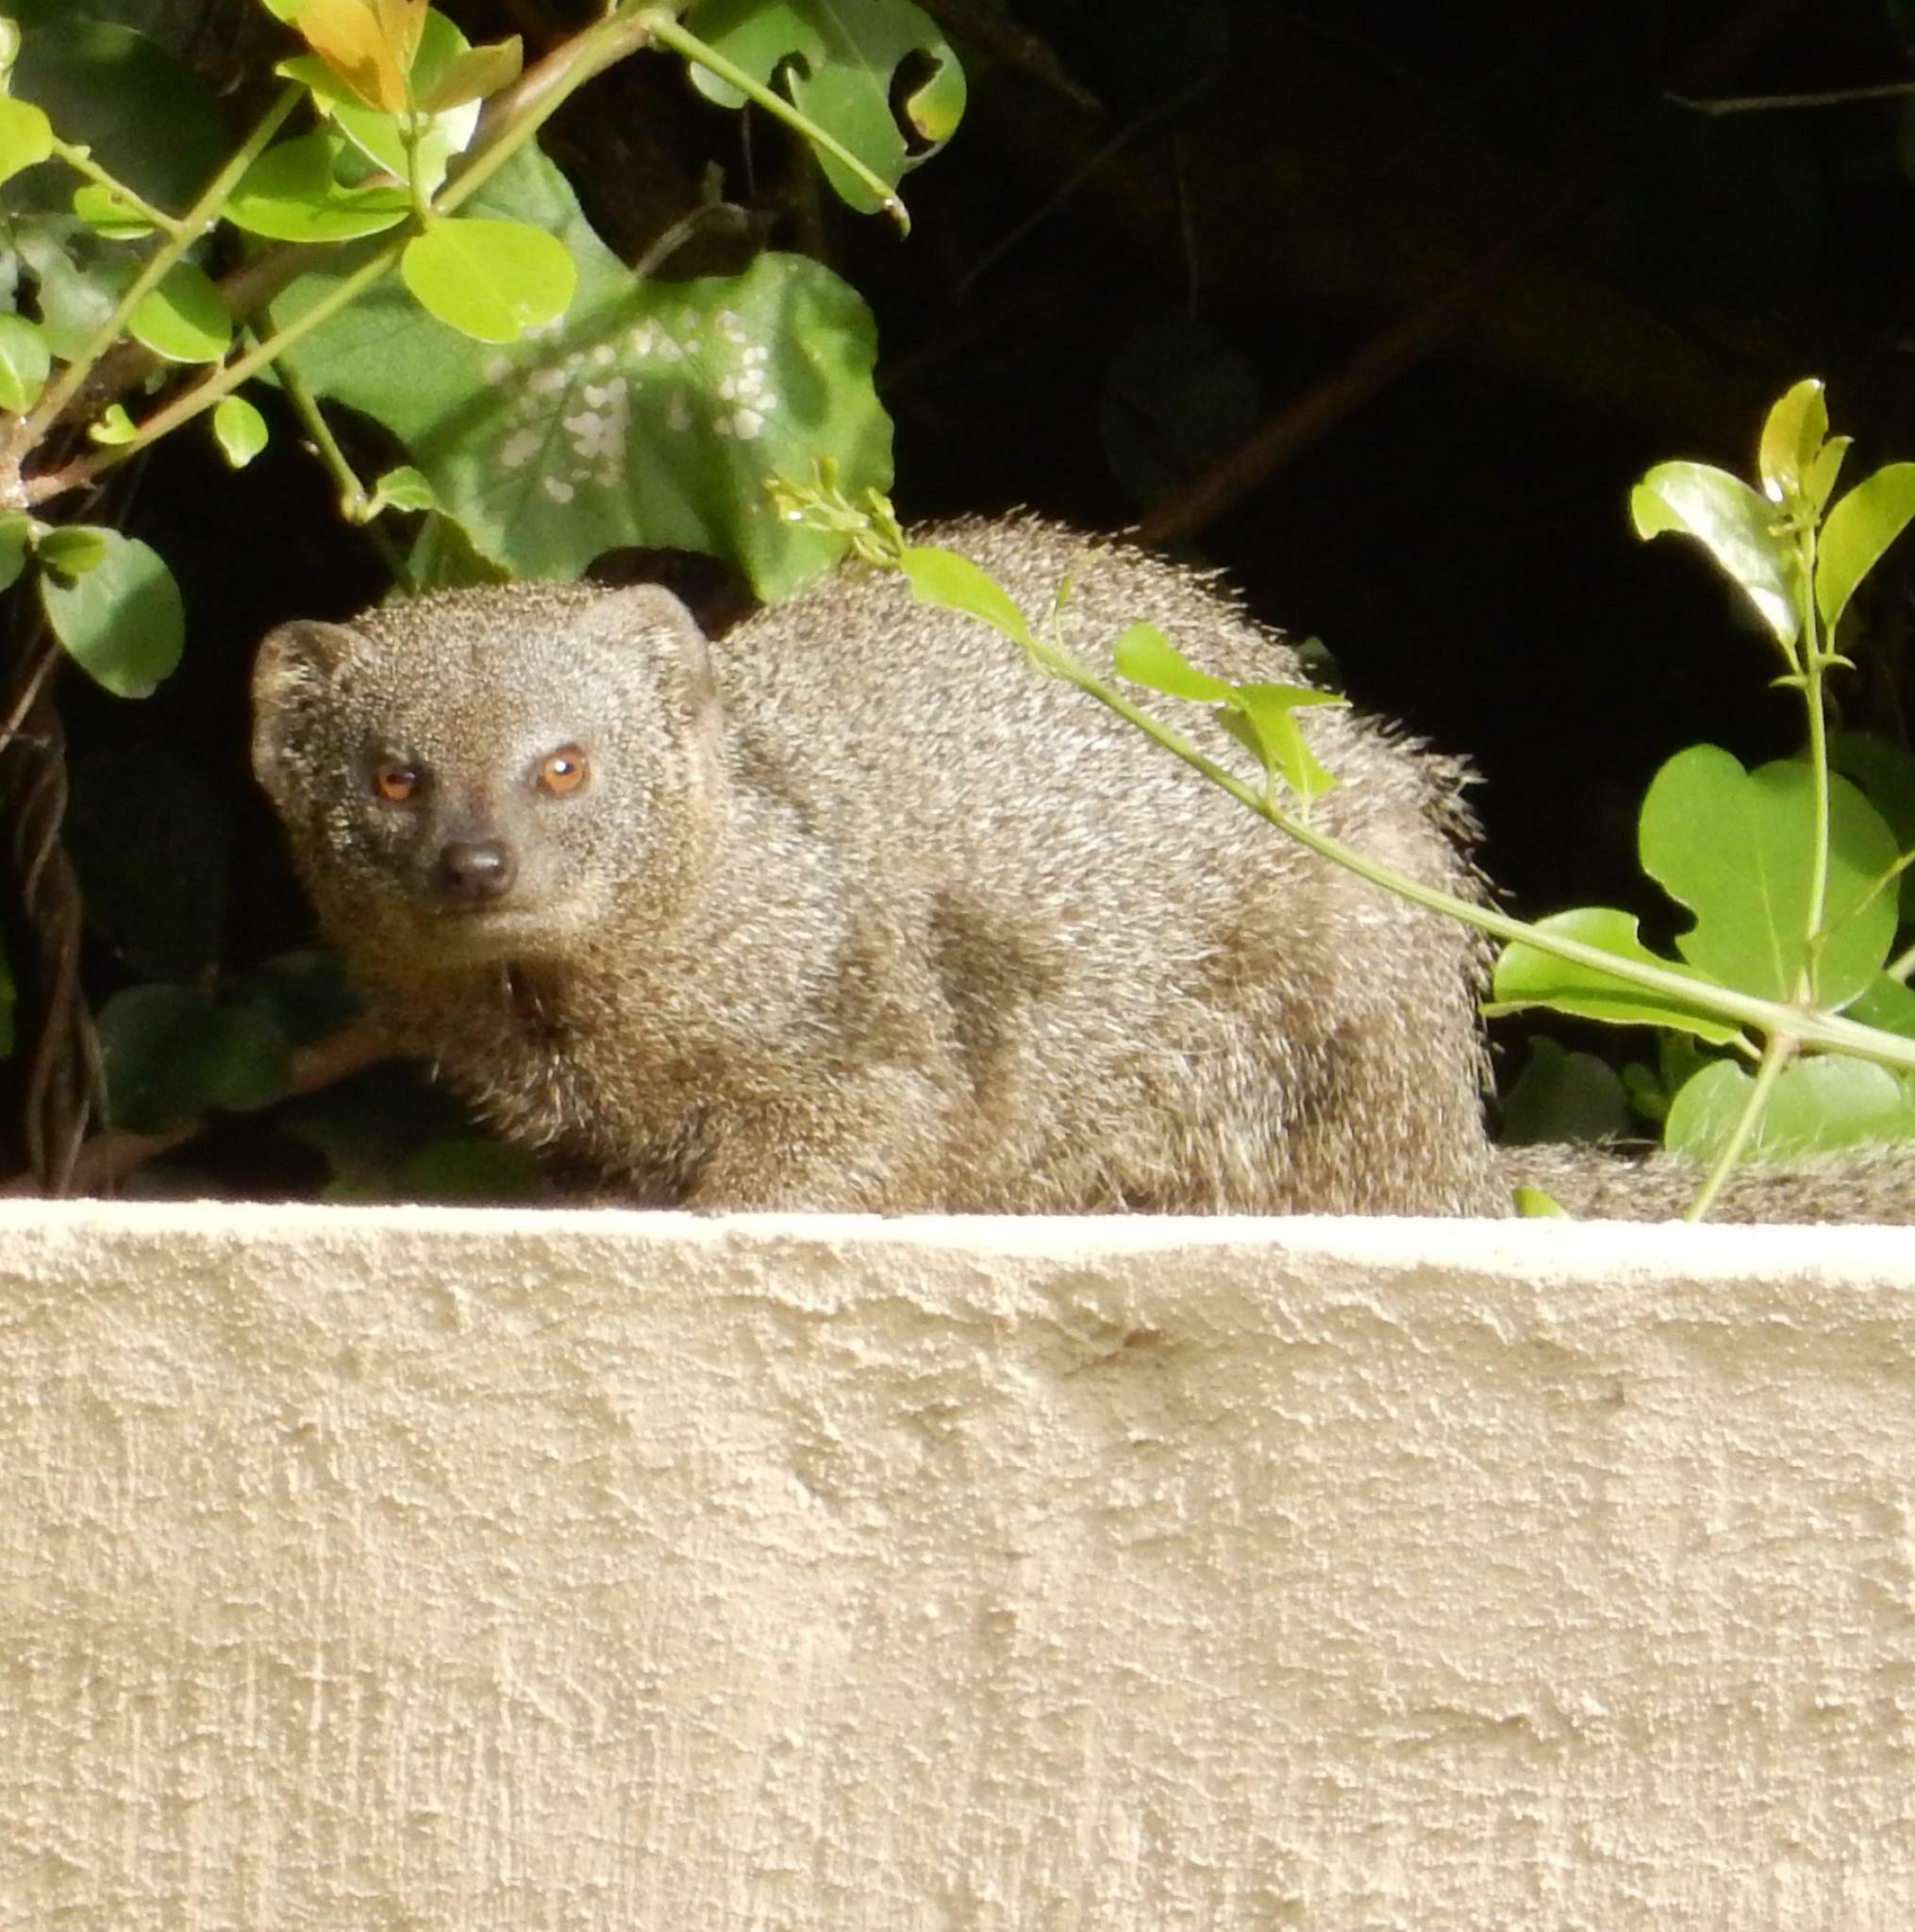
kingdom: Animalia
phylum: Chordata
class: Mammalia
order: Carnivora
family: Herpestidae
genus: Galerella
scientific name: Galerella pulverulenta
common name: Cape gray mongoose
